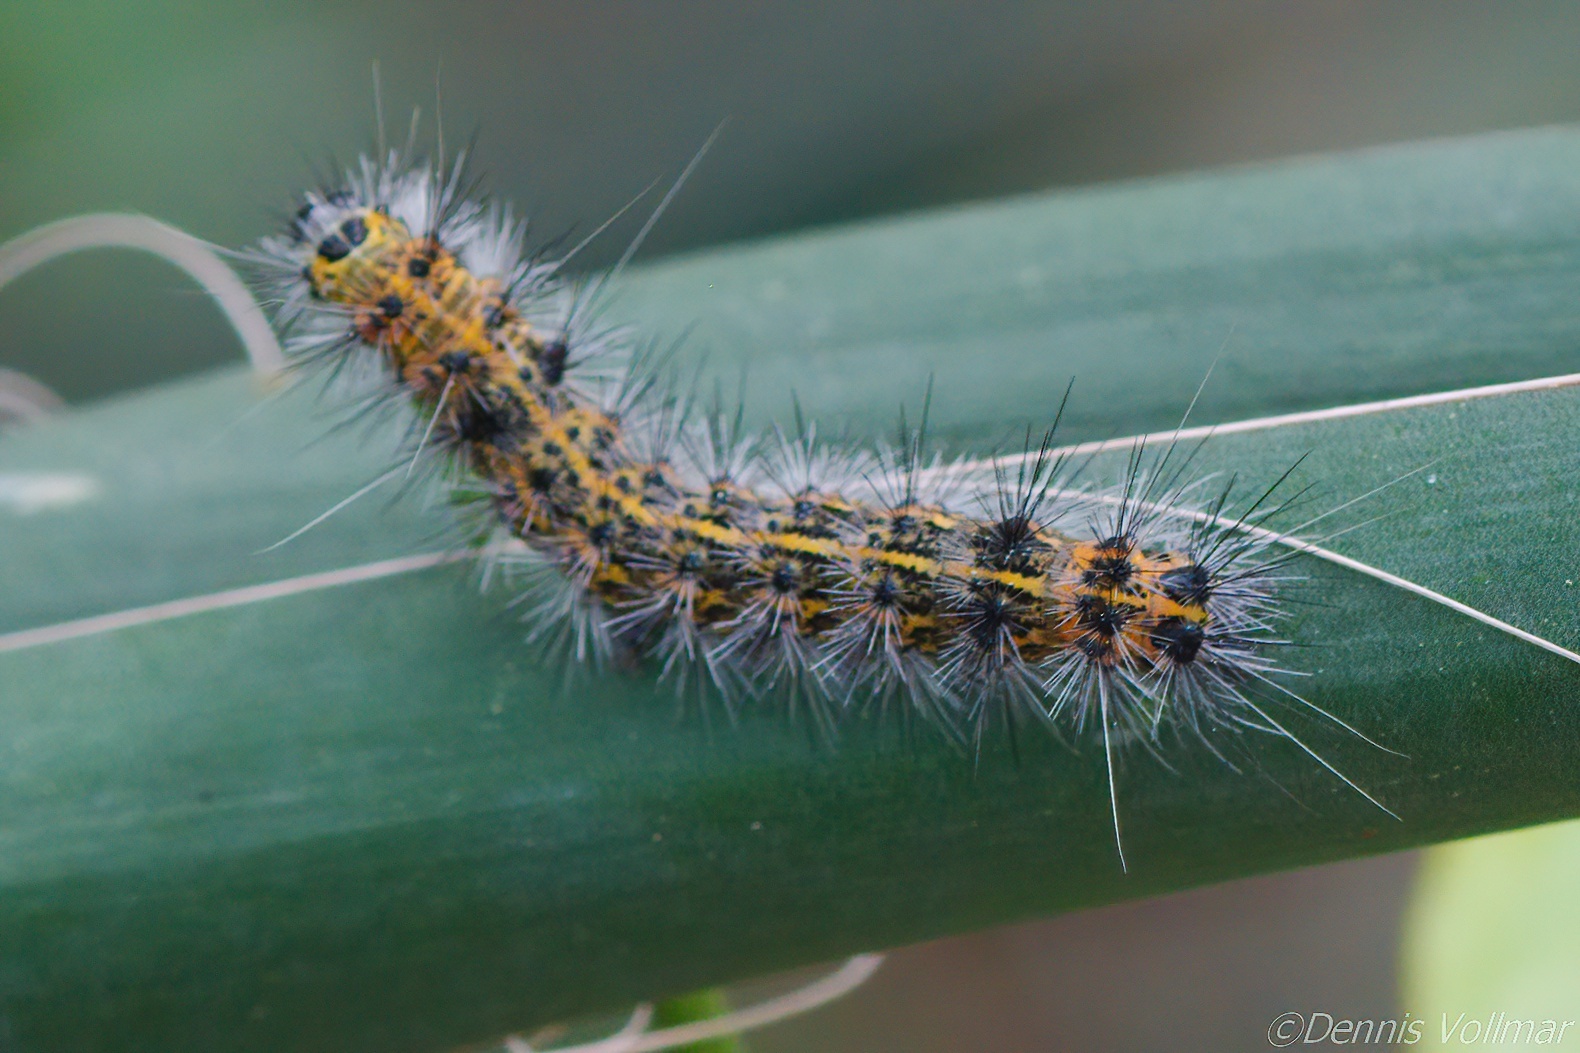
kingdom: Animalia
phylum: Arthropoda
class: Insecta
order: Lepidoptera
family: Erebidae
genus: Spilosoma
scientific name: Spilosoma dubia
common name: Dubious tiger moth
